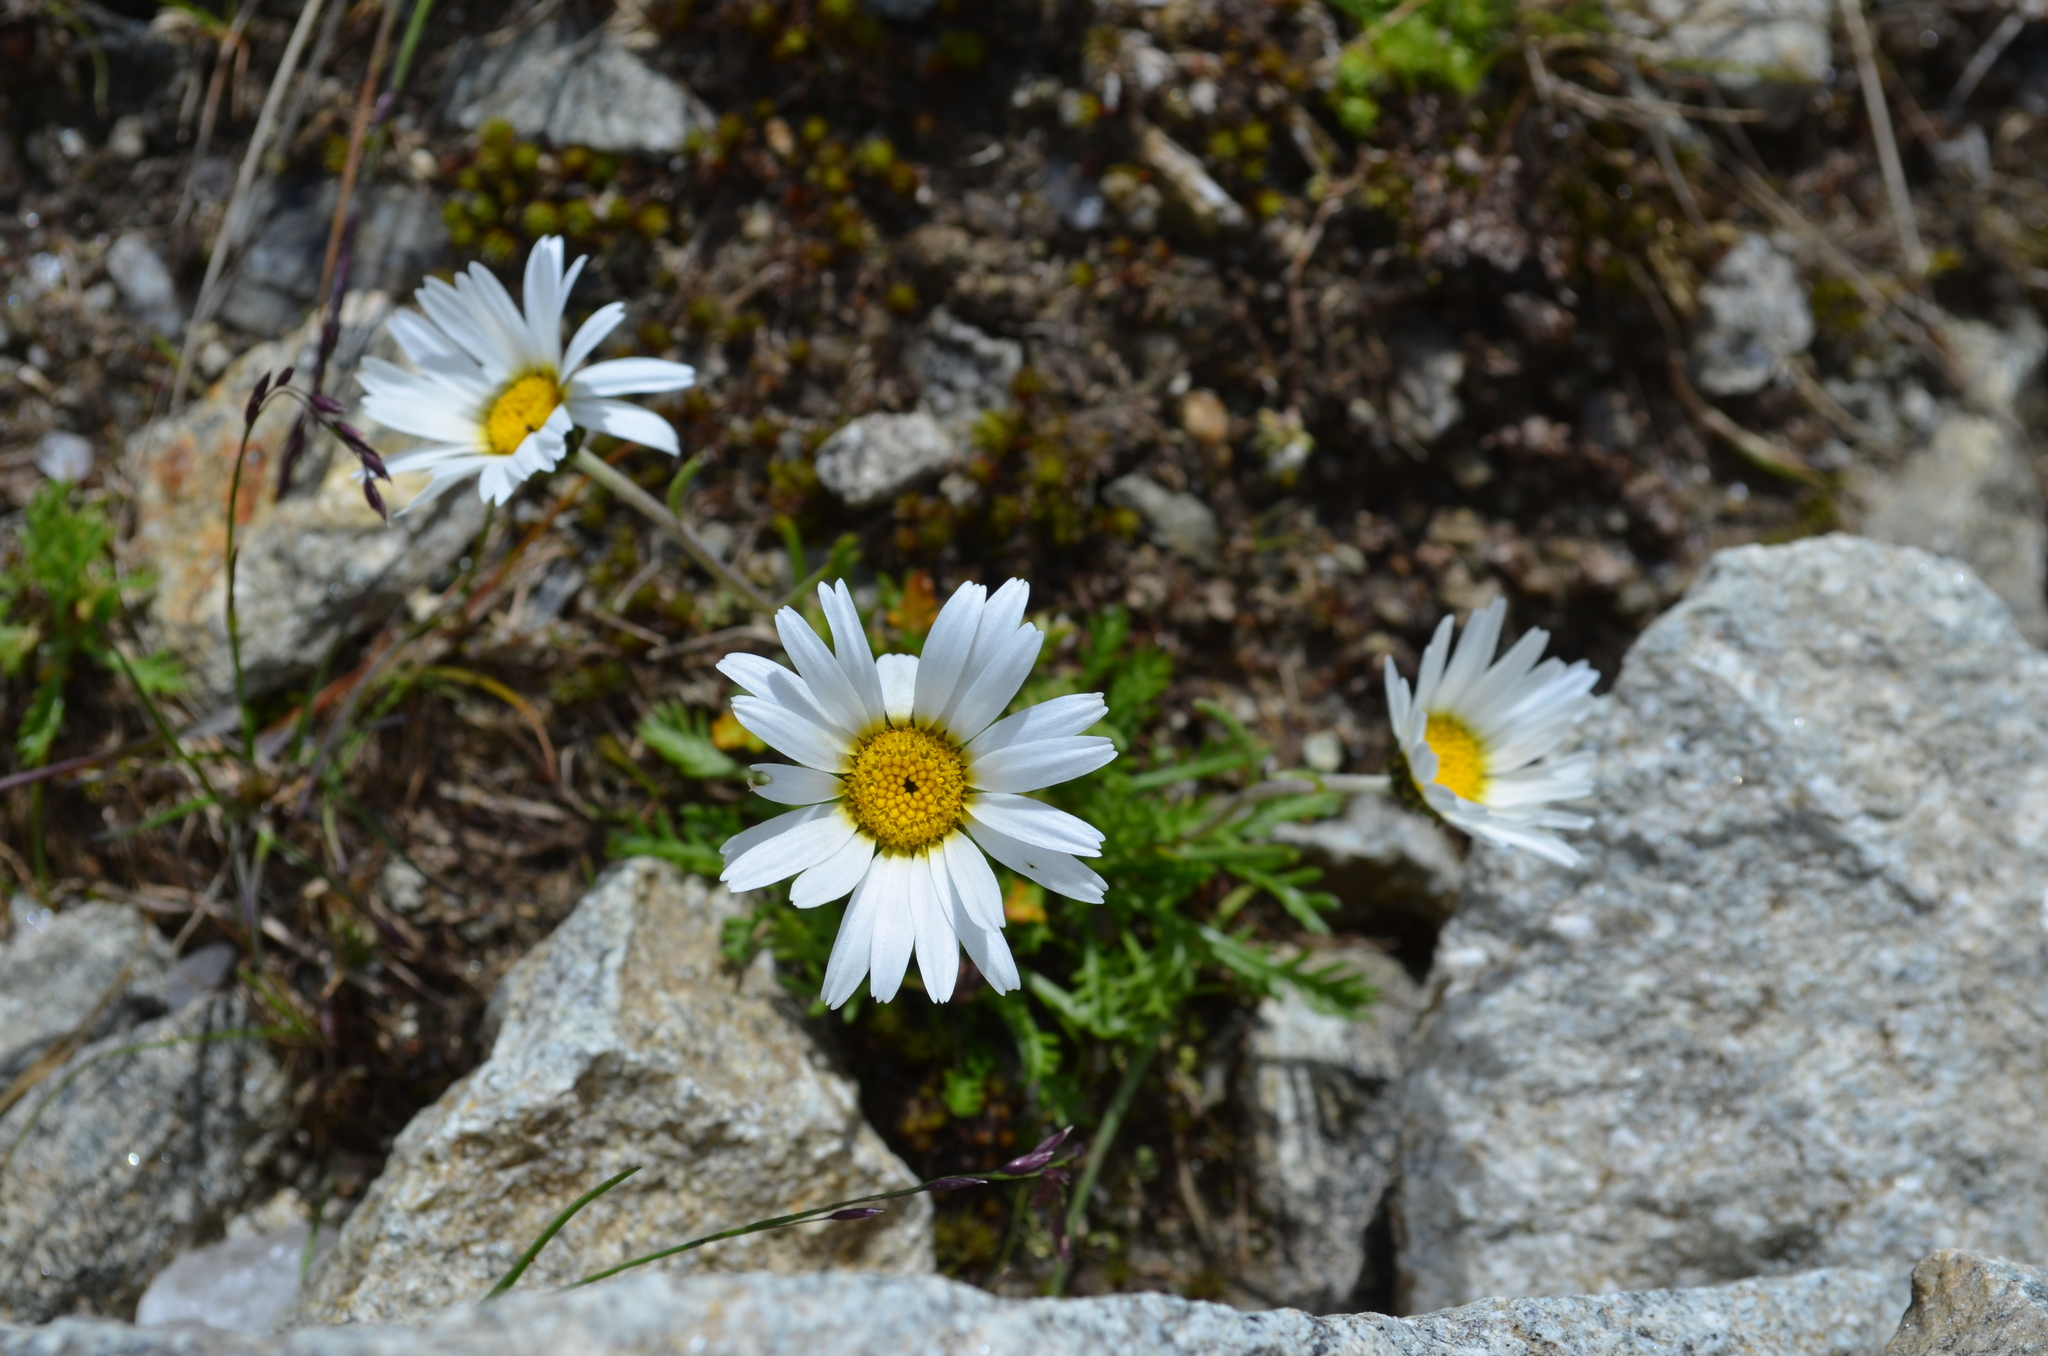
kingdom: Plantae
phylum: Tracheophyta
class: Magnoliopsida
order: Asterales
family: Asteraceae
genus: Leucanthemopsis
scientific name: Leucanthemopsis alpina
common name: Alpine moon daisy
